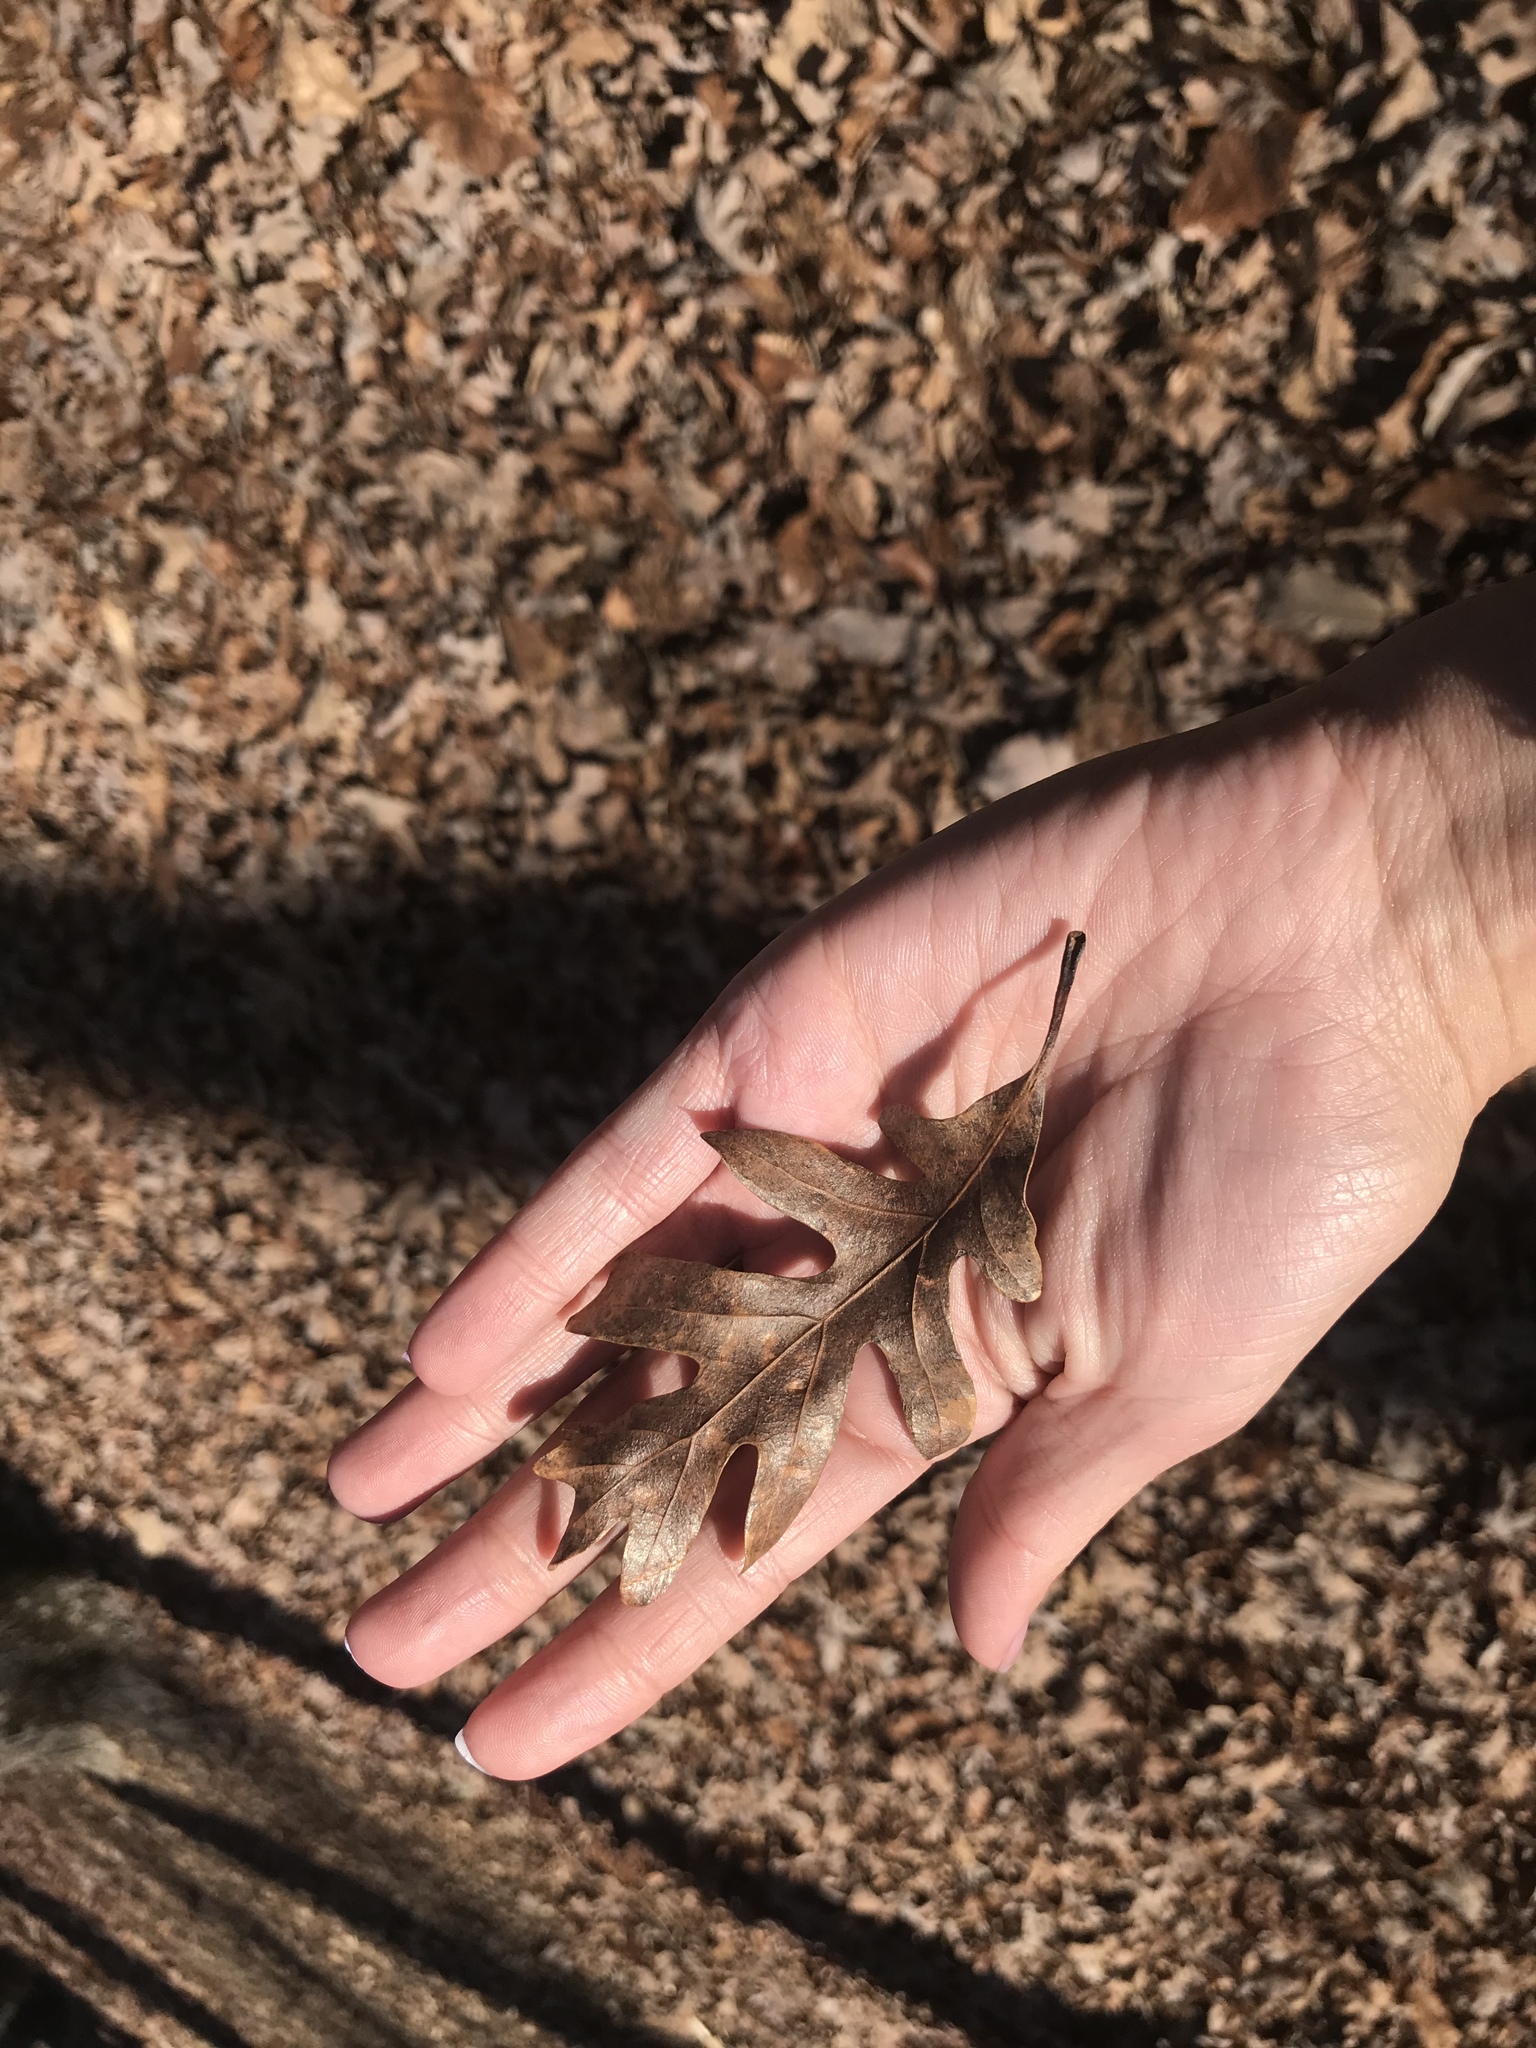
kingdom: Plantae
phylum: Tracheophyta
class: Magnoliopsida
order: Fagales
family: Fagaceae
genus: Quercus
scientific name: Quercus alba
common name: White oak
